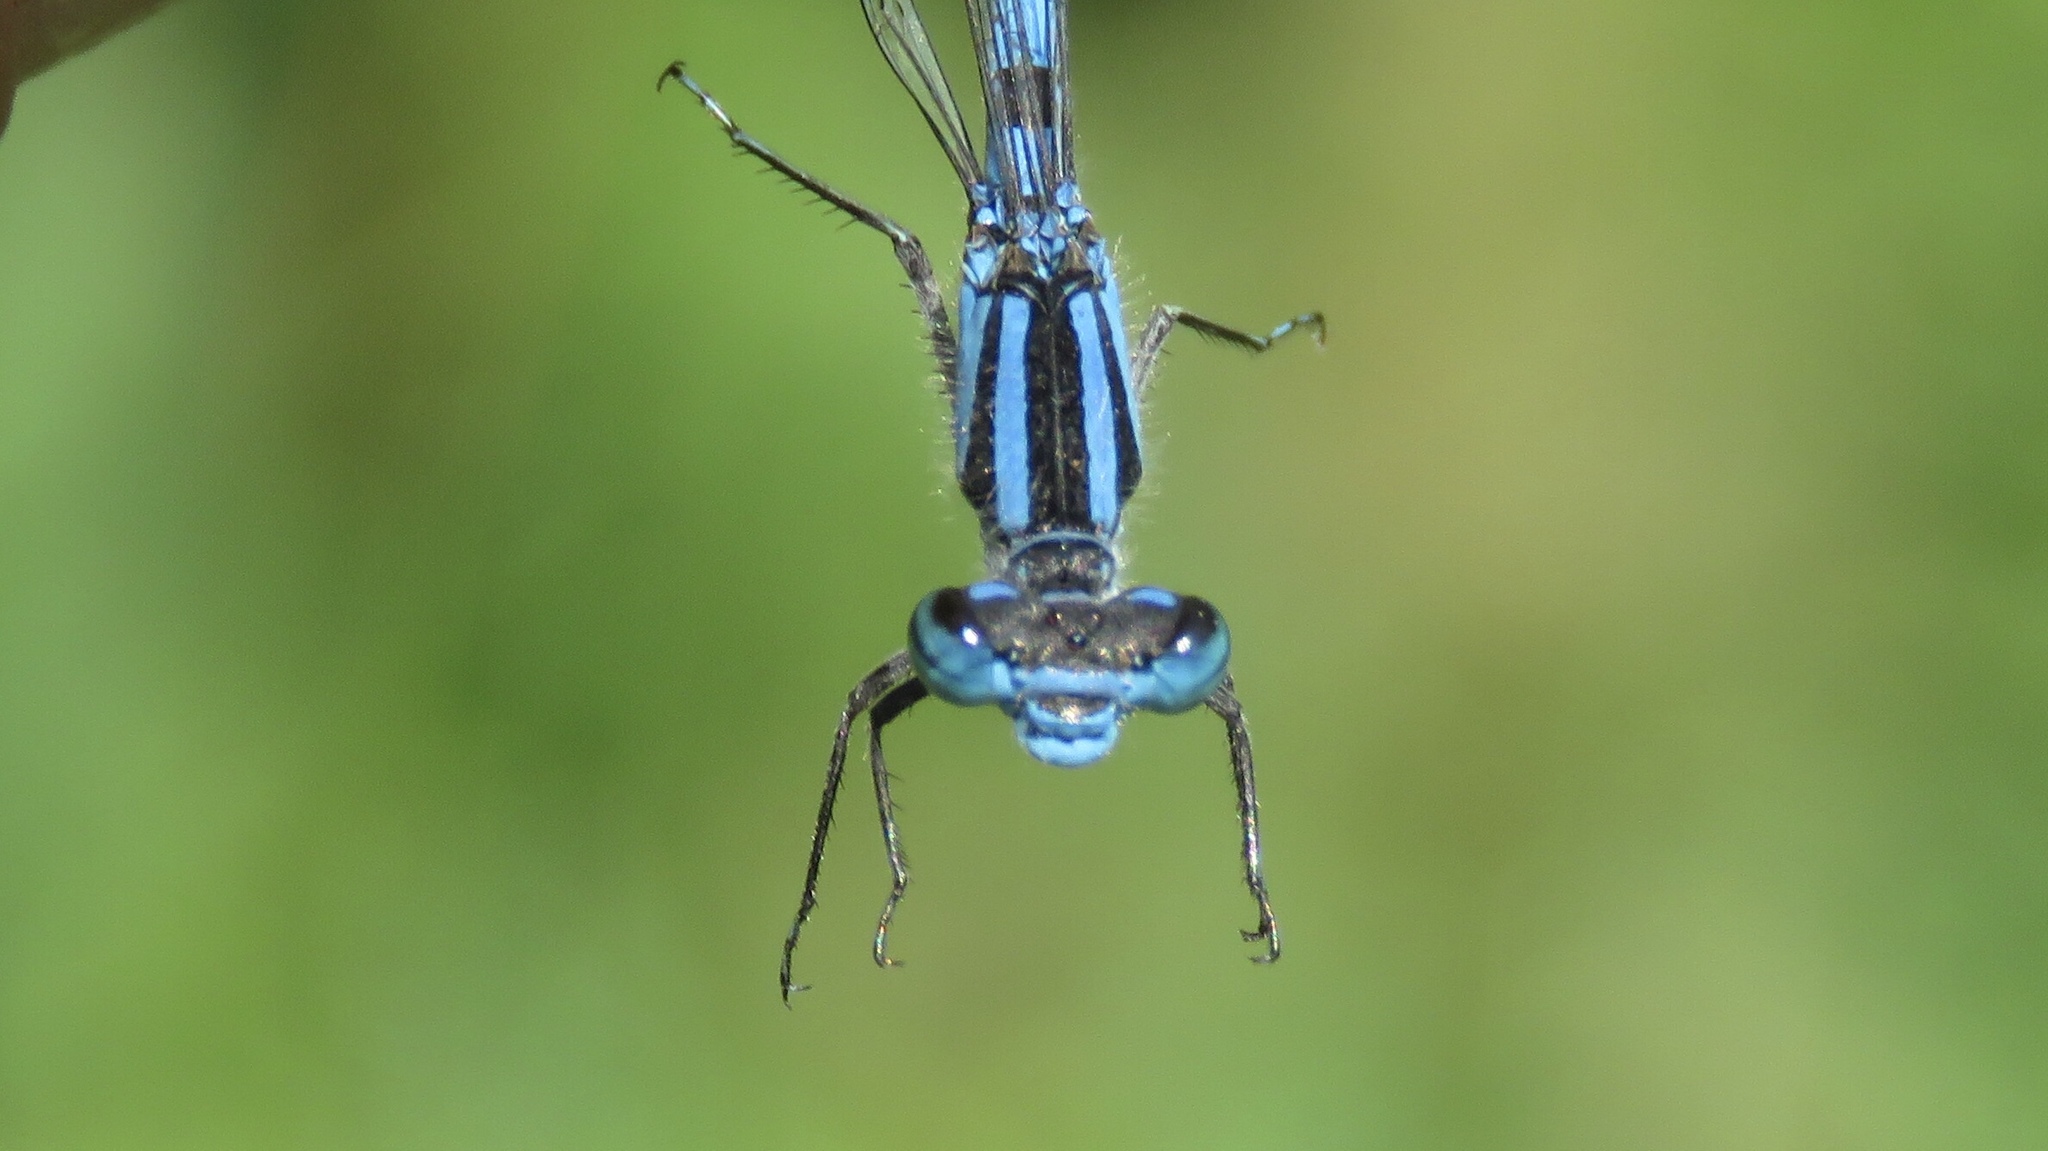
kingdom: Animalia
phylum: Arthropoda
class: Insecta
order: Odonata
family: Coenagrionidae
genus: Enallagma
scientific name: Enallagma ebrium
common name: Marsh bluet
